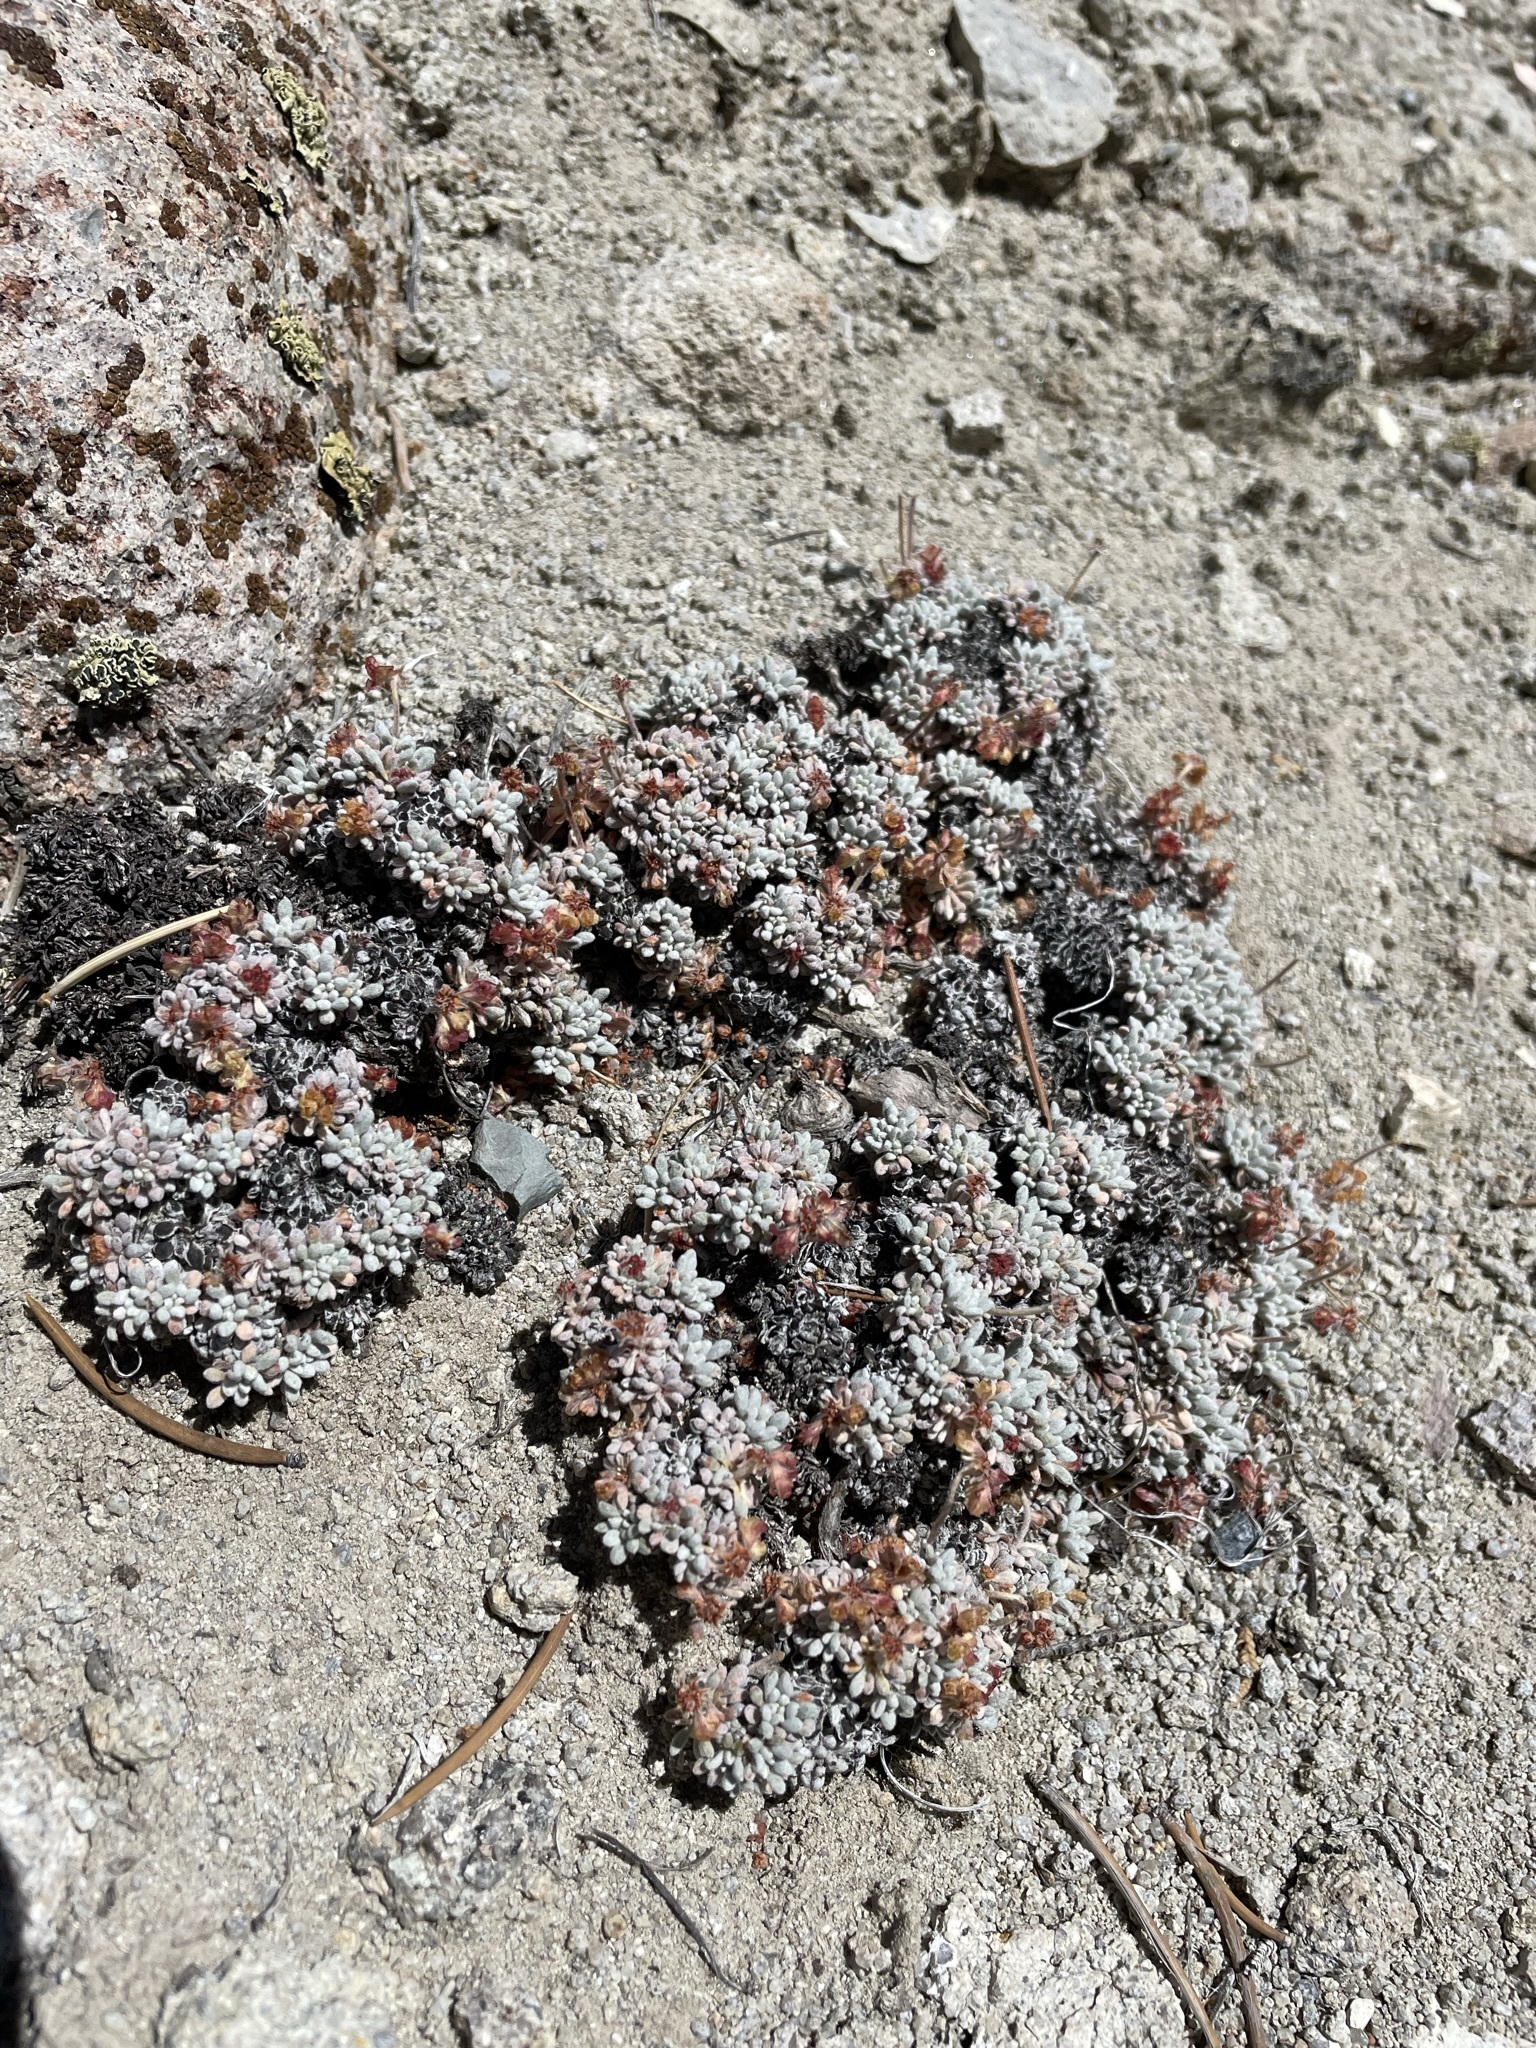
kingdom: Plantae
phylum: Tracheophyta
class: Magnoliopsida
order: Caryophyllales
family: Polygonaceae
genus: Eriogonum
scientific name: Eriogonum caespitosum
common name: Matted wild buckwheat
